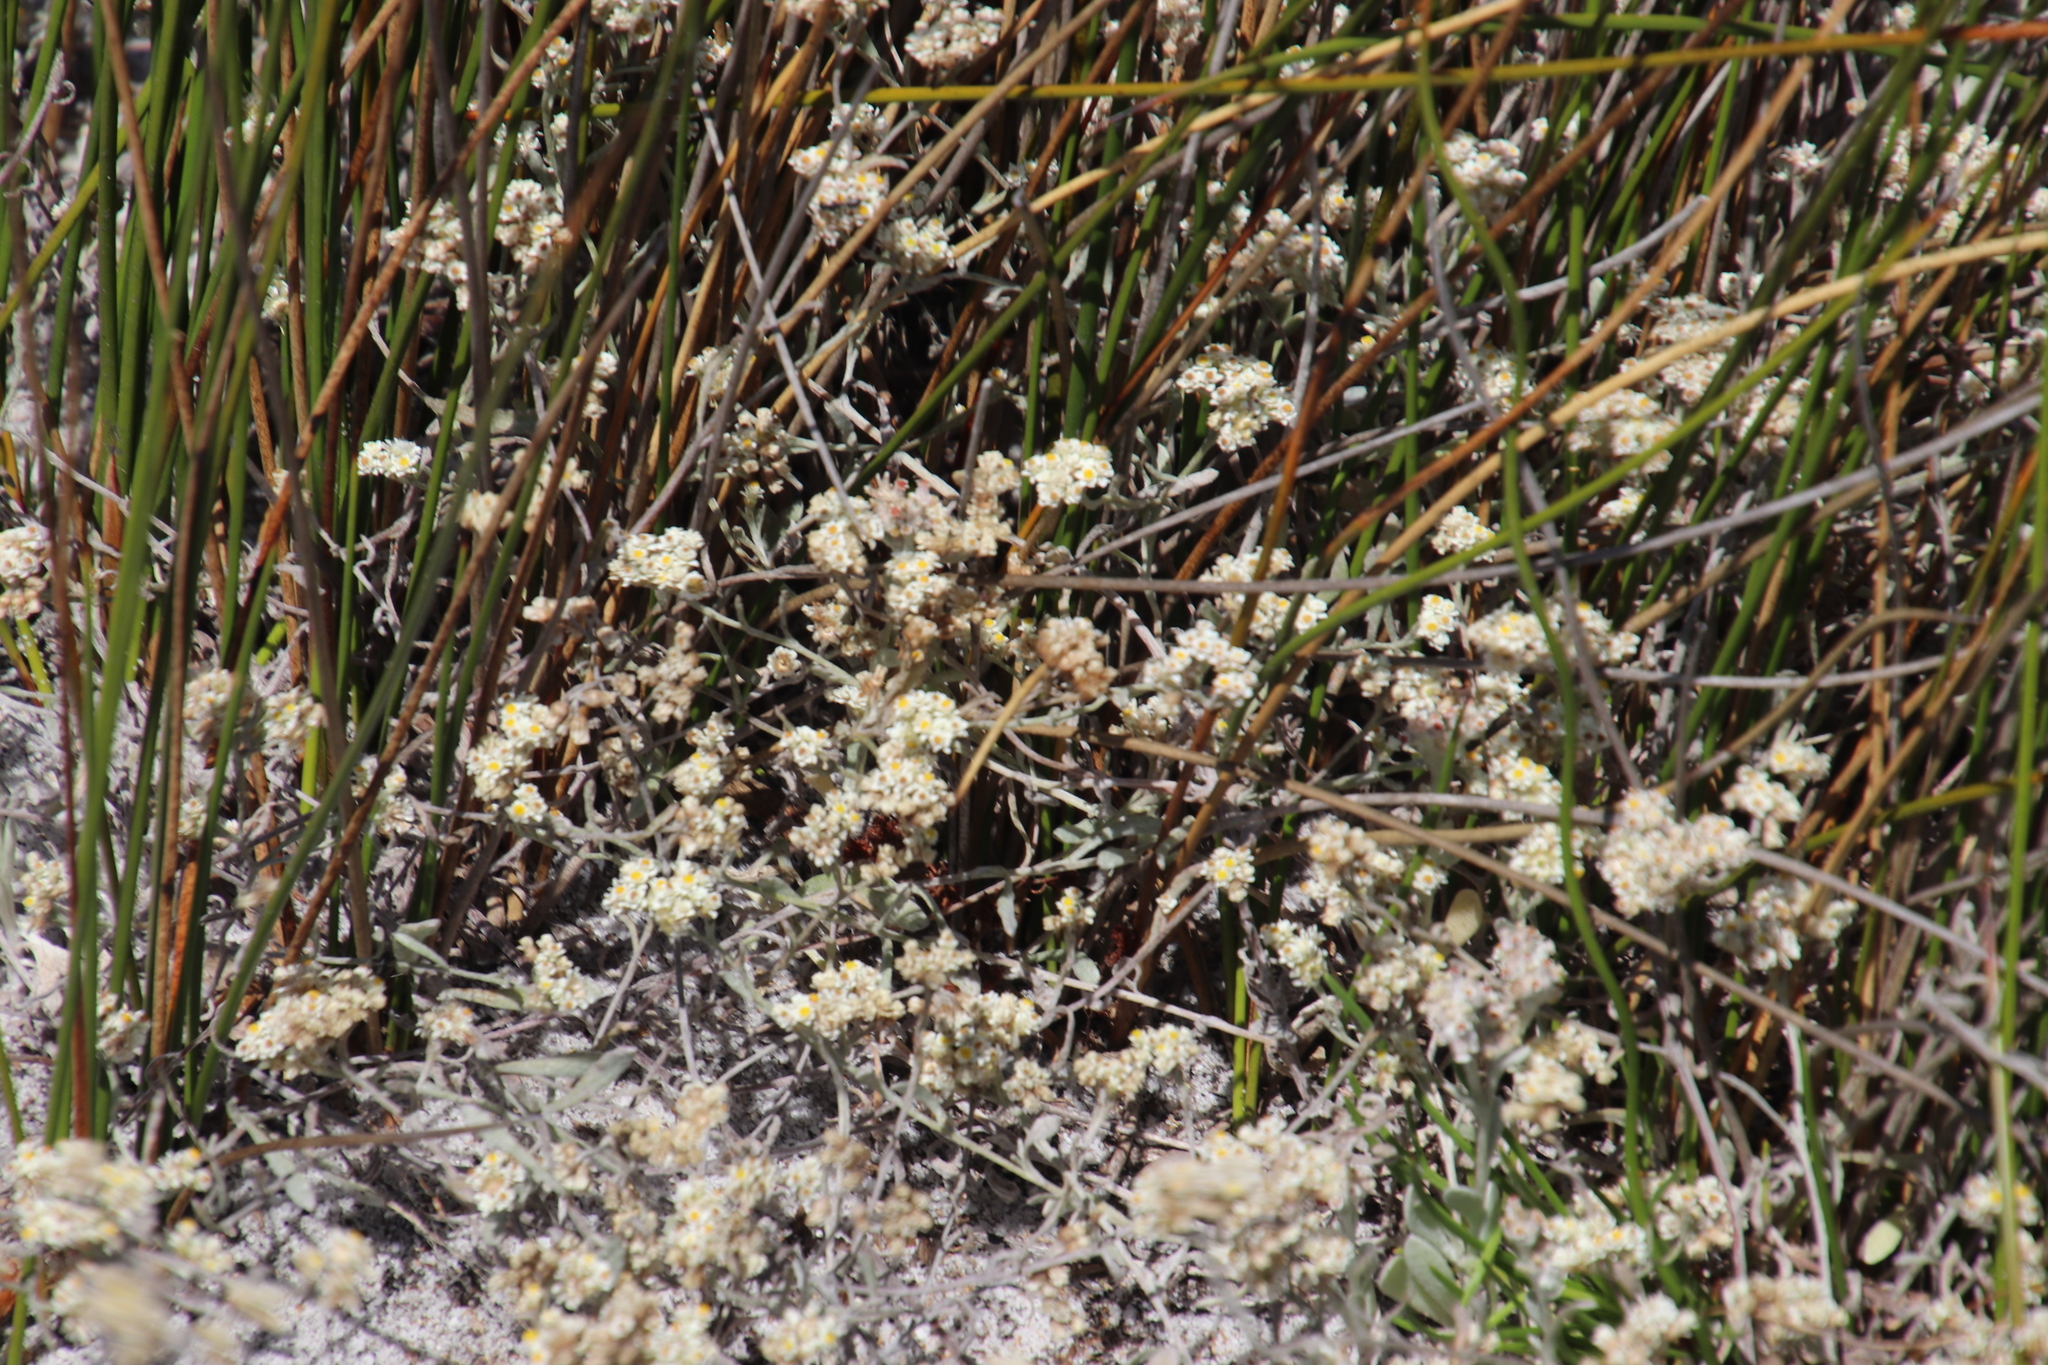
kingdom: Plantae
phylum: Tracheophyta
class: Magnoliopsida
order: Asterales
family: Asteraceae
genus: Helichrysum
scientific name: Helichrysum indicum
